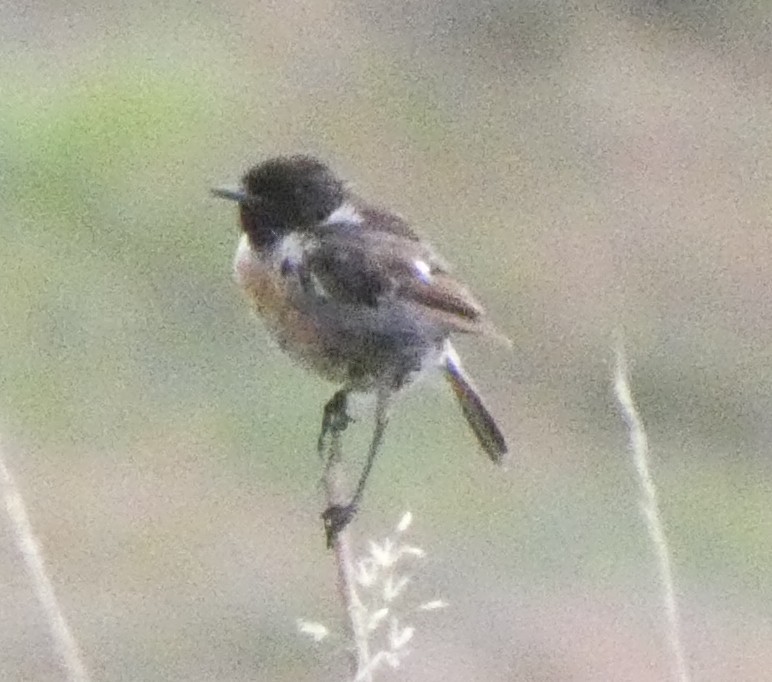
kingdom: Animalia
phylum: Chordata
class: Aves
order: Passeriformes
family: Muscicapidae
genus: Saxicola
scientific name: Saxicola rubicola
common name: European stonechat
